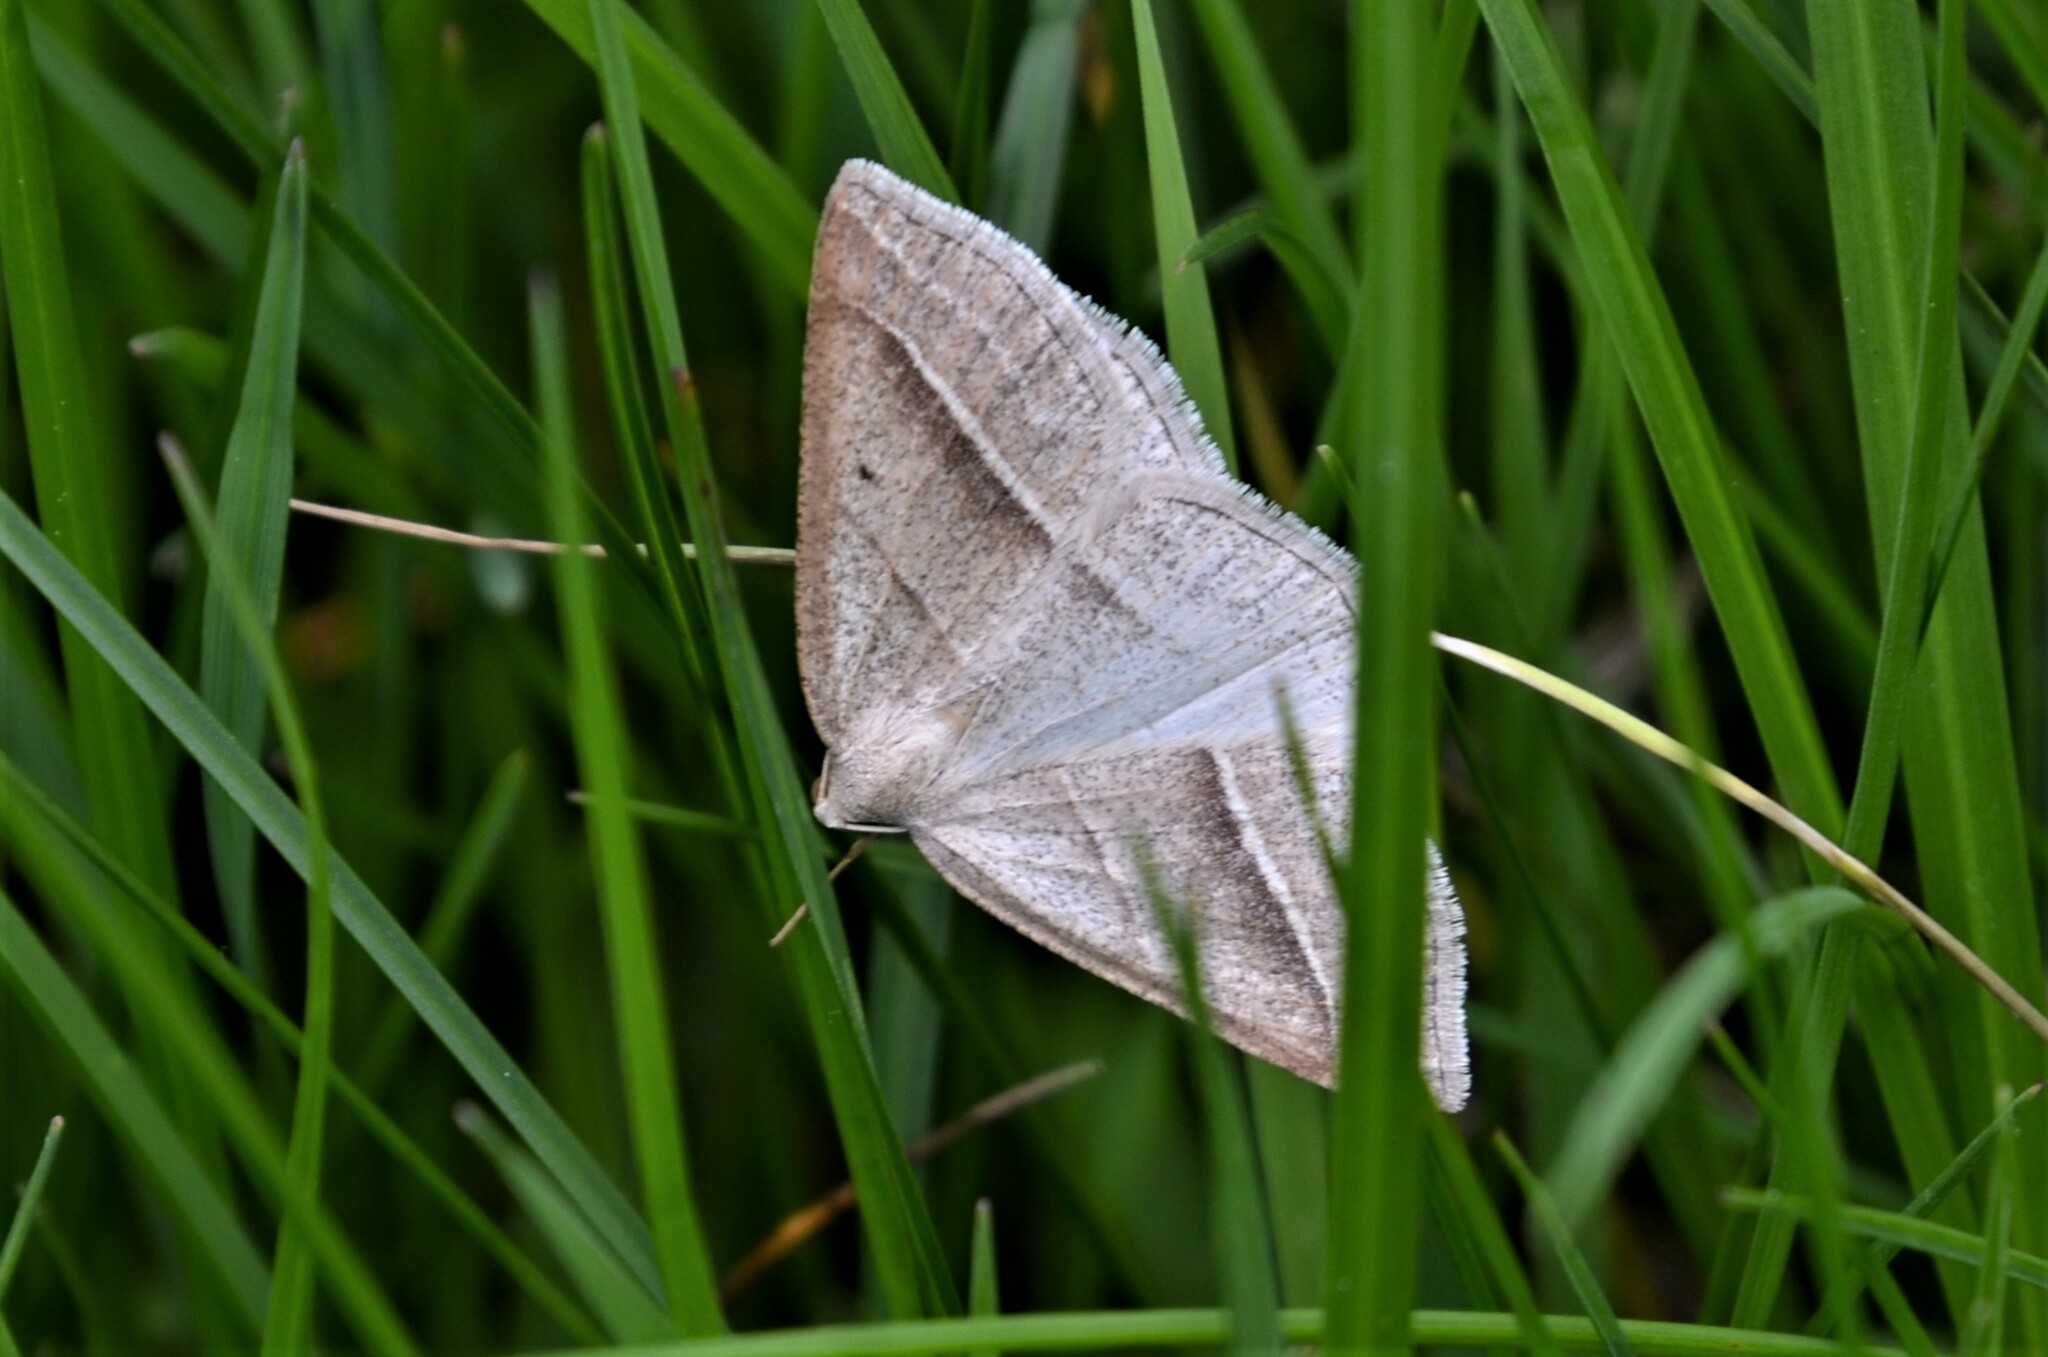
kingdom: Animalia
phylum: Arthropoda
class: Insecta
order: Lepidoptera
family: Pterophoridae
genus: Pterophorus
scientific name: Pterophorus Petrophora chlorosata
